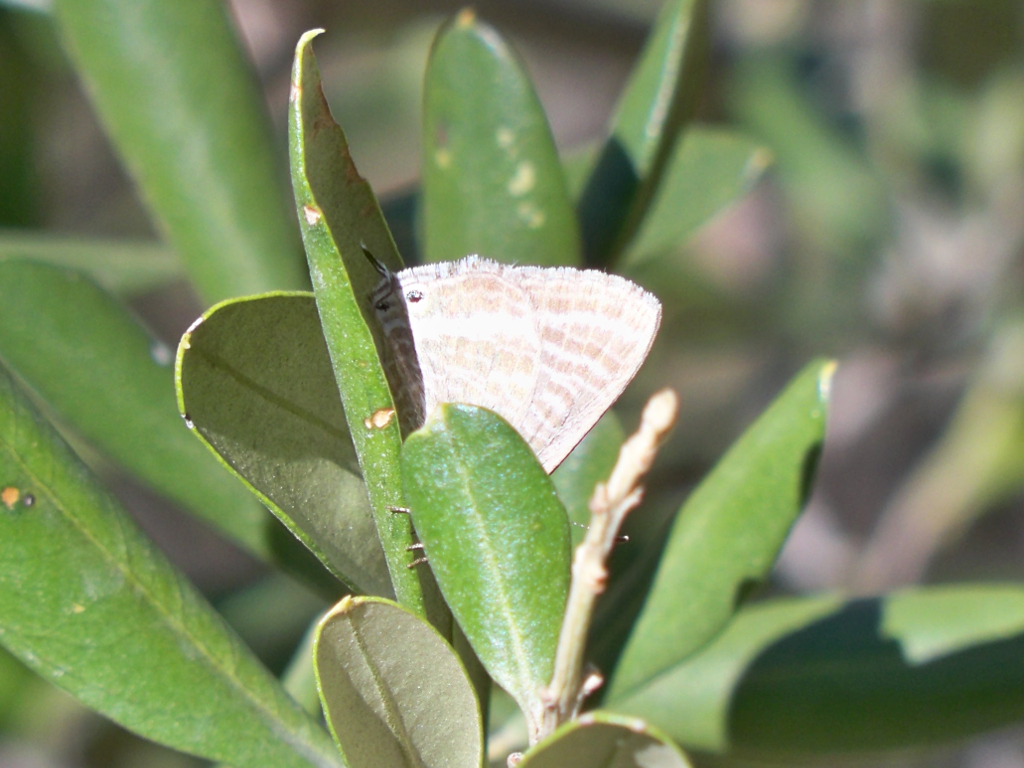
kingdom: Animalia
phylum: Arthropoda
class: Insecta
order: Lepidoptera
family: Lycaenidae
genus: Lampides
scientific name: Lampides boeticus
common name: Long-tailed blue
